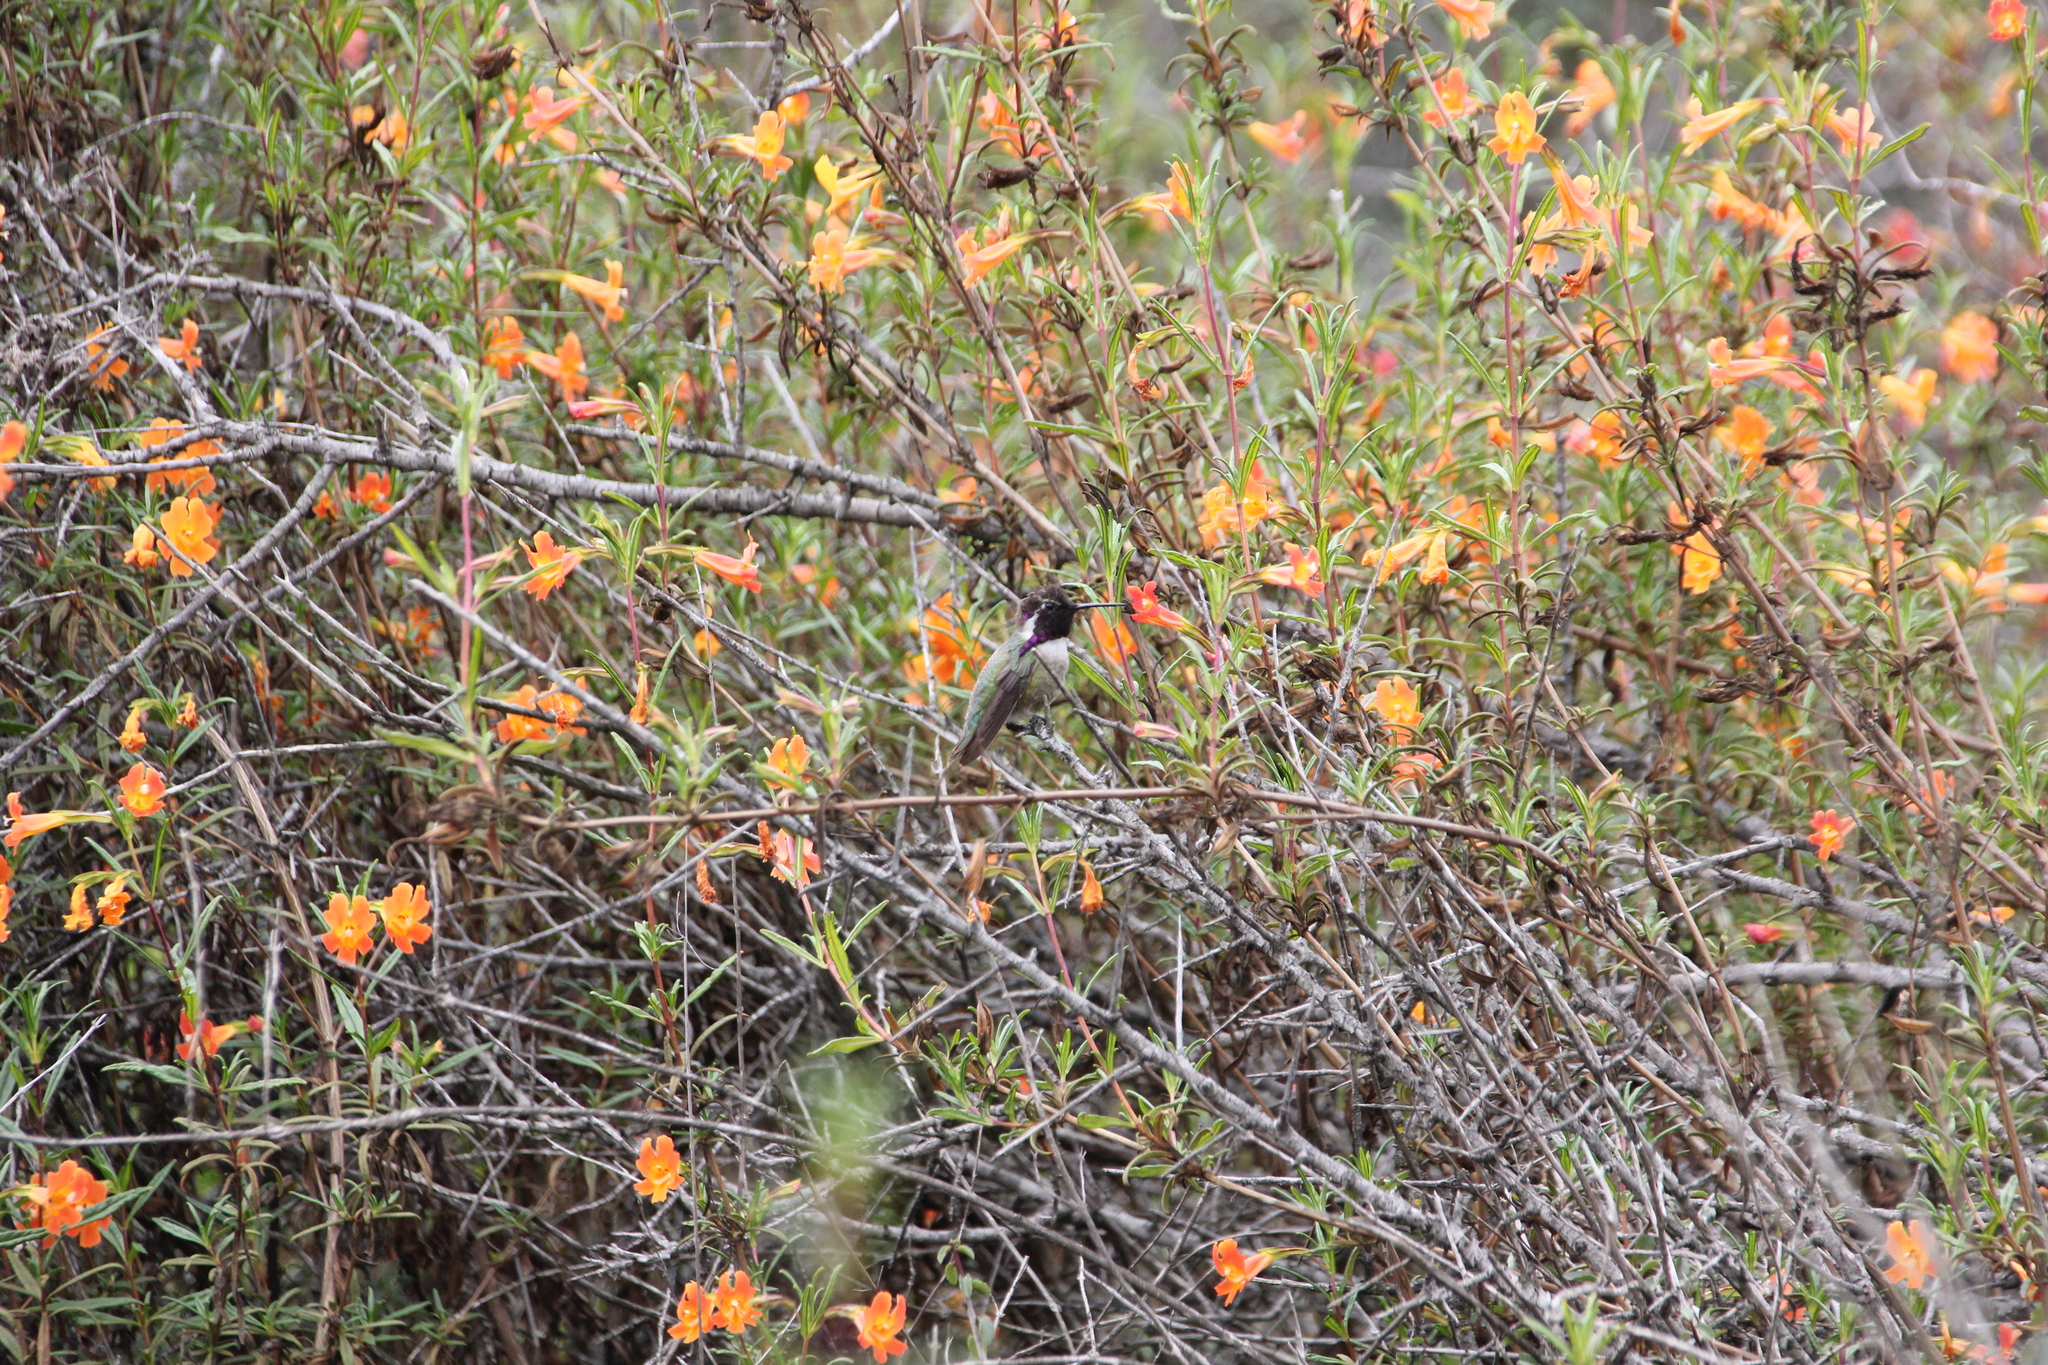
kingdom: Animalia
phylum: Chordata
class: Aves
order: Apodiformes
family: Trochilidae
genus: Calypte
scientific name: Calypte costae
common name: Costa's hummingbird
